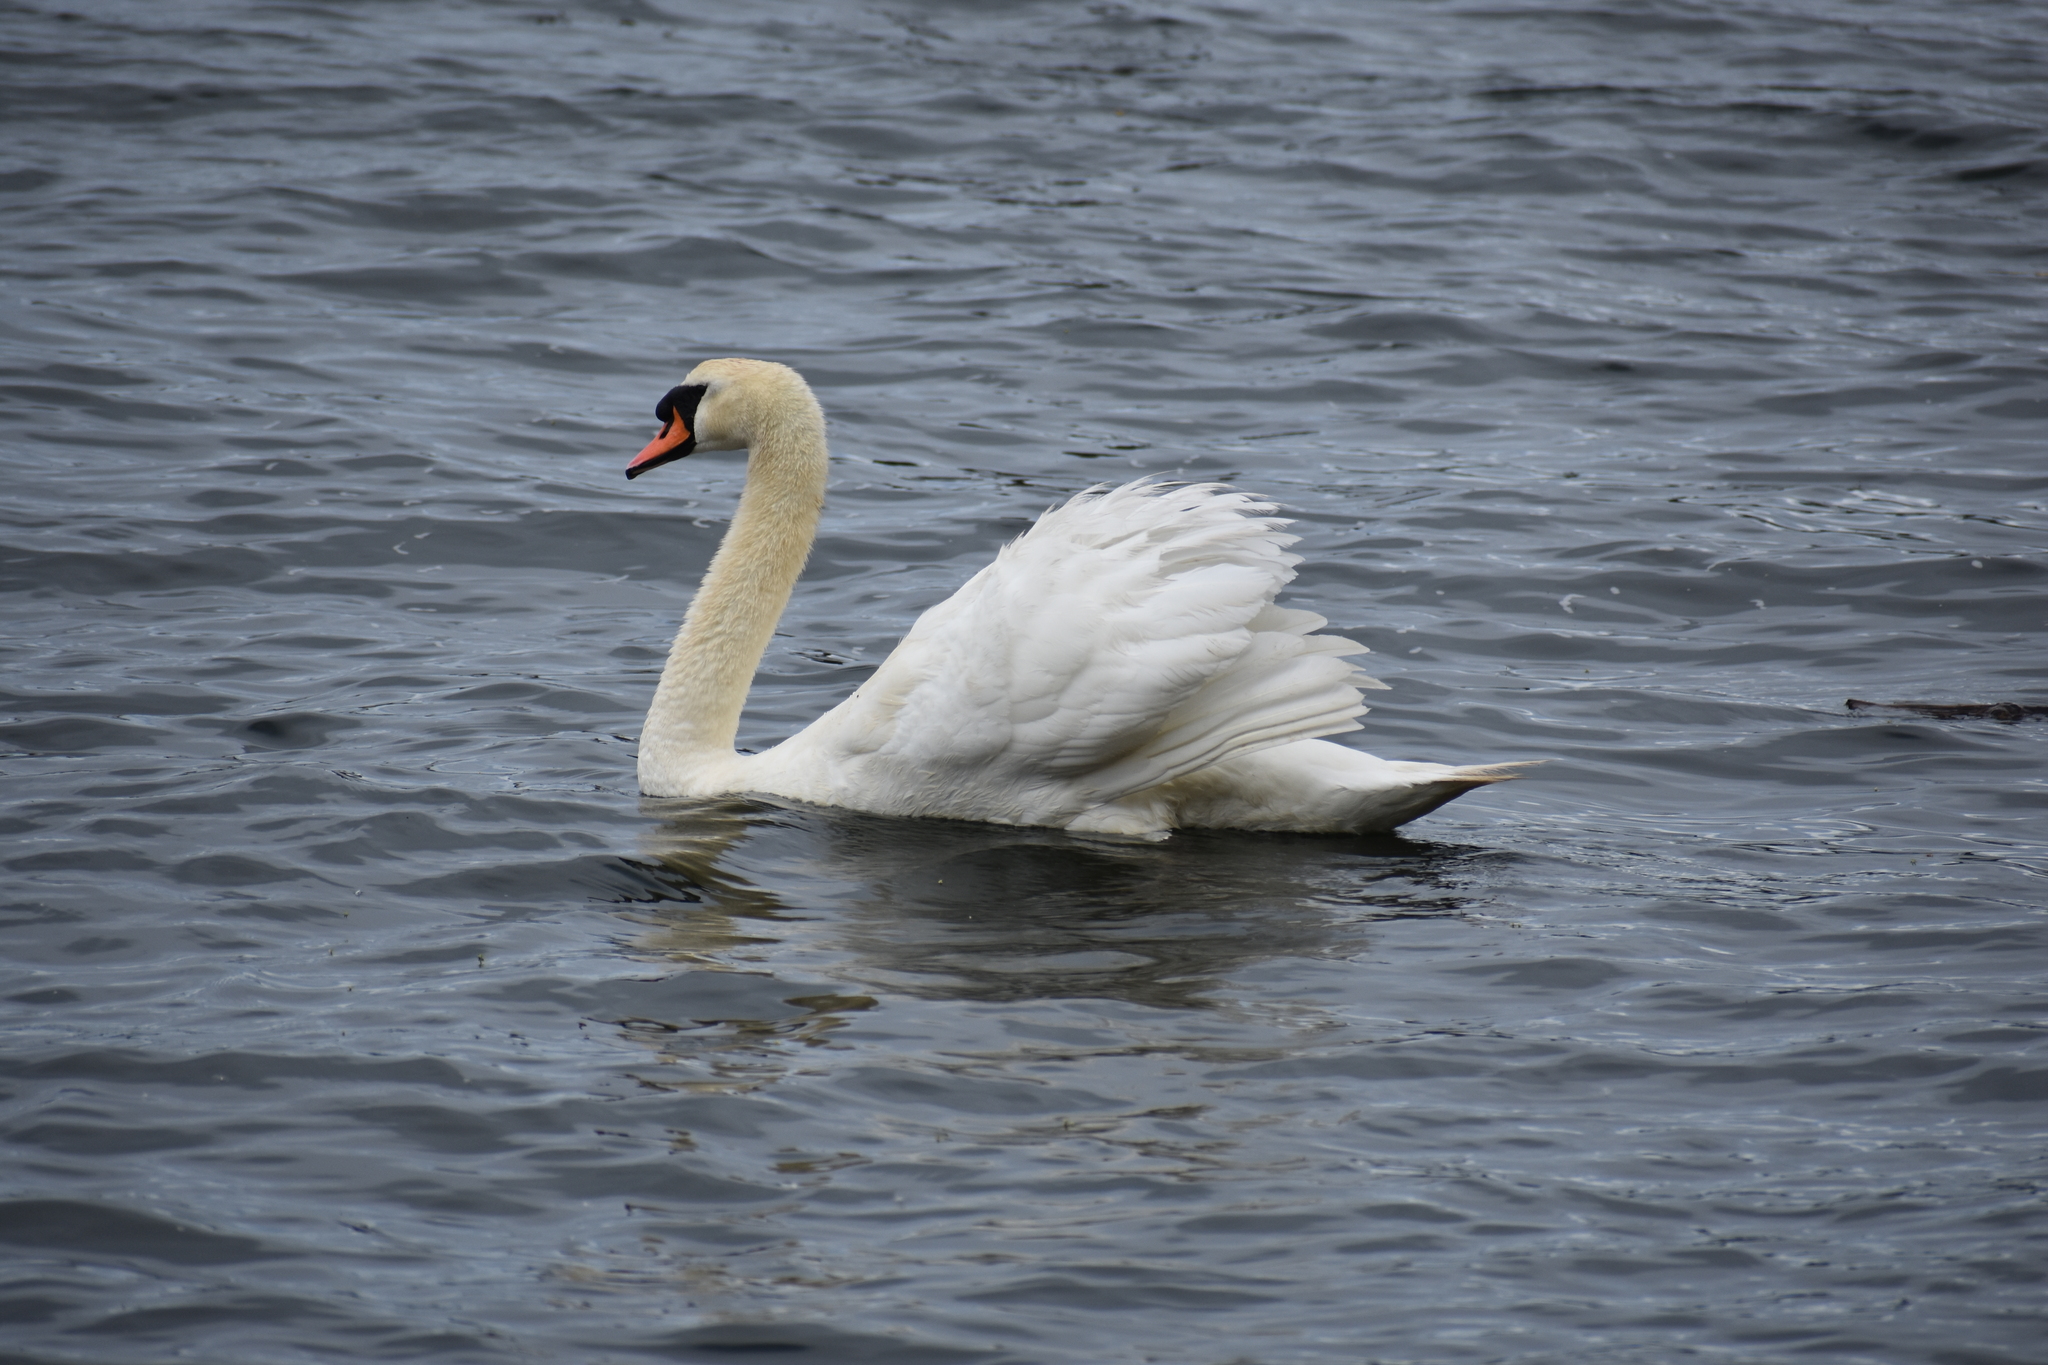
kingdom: Animalia
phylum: Chordata
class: Aves
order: Anseriformes
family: Anatidae
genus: Cygnus
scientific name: Cygnus olor
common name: Mute swan
